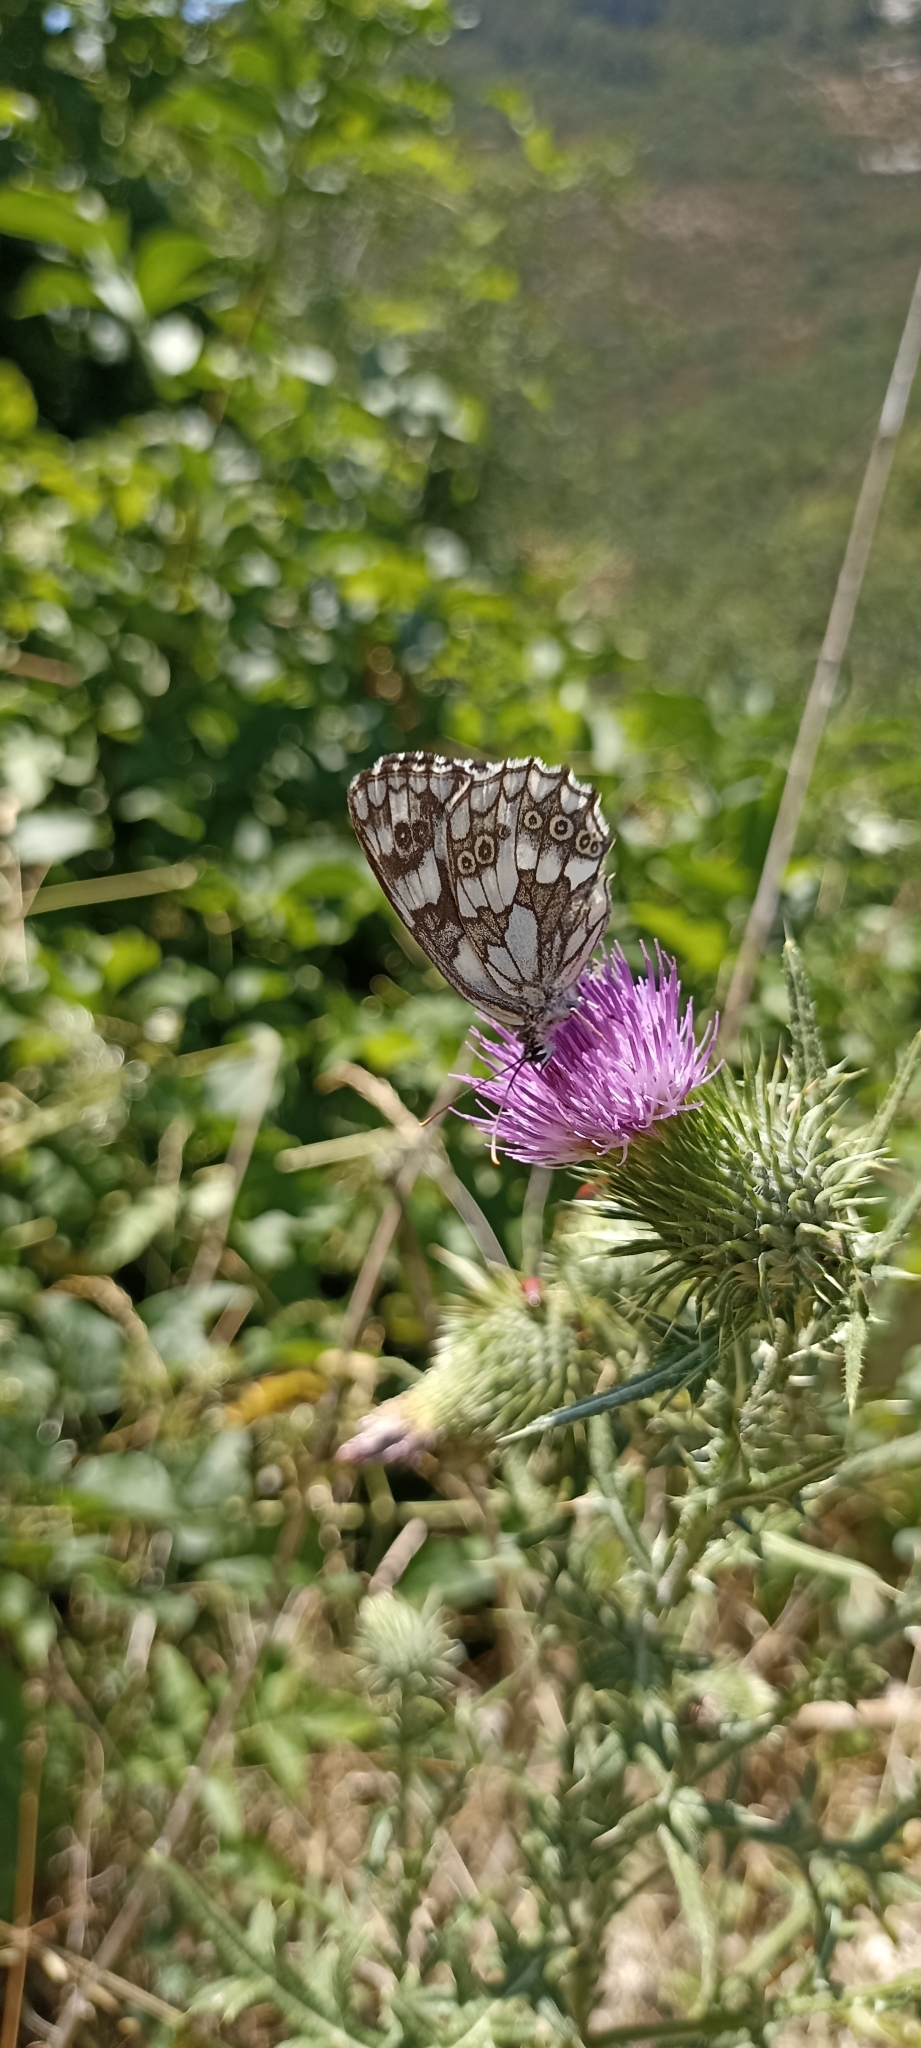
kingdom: Animalia
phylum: Arthropoda
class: Insecta
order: Lepidoptera
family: Nymphalidae
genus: Melanargia
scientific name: Melanargia galathea
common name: Marbled white
